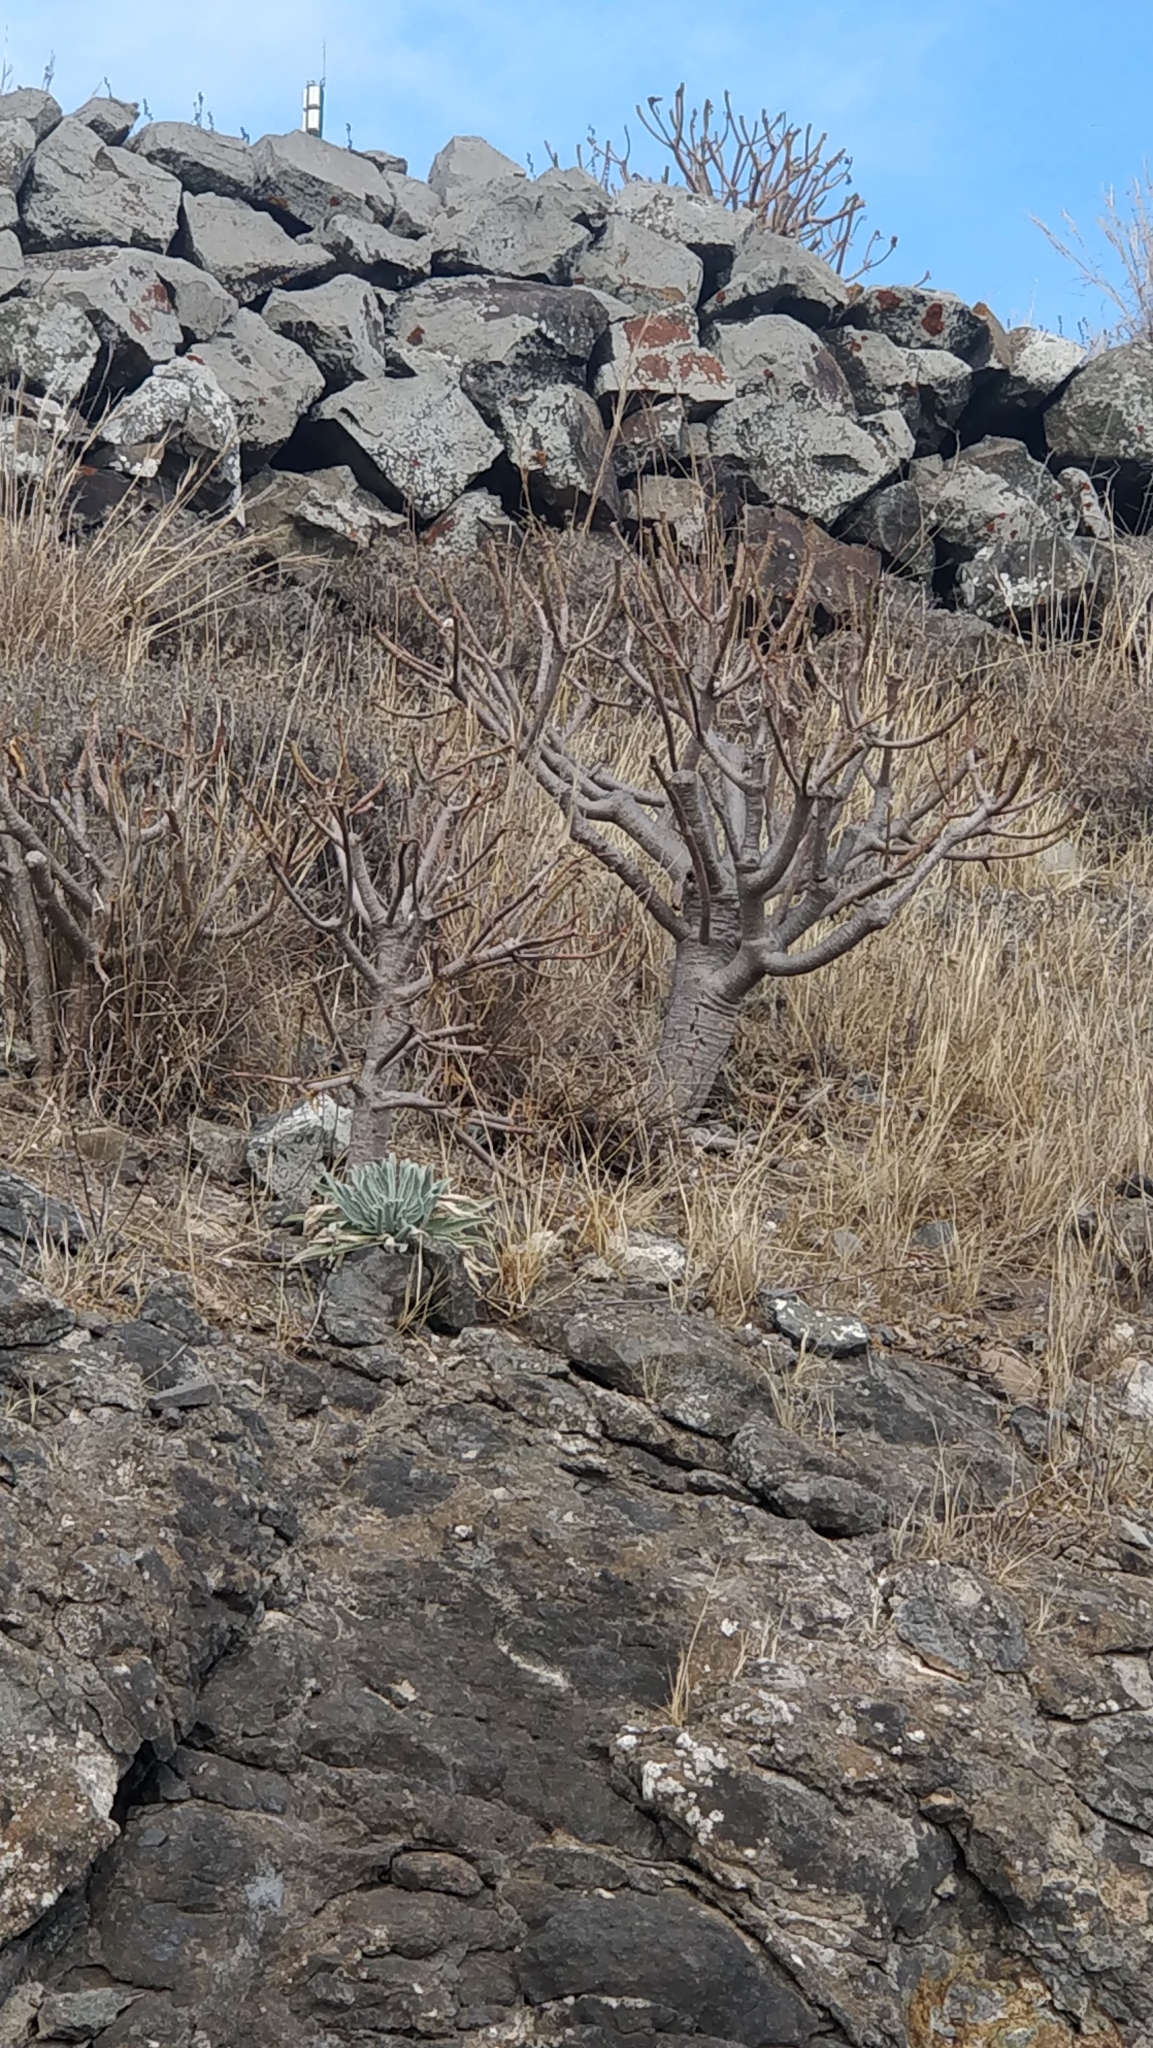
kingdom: Plantae
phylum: Tracheophyta
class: Magnoliopsida
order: Malpighiales
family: Euphorbiaceae
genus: Euphorbia
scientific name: Euphorbia piscatoria
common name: Fish-stunning spurge
